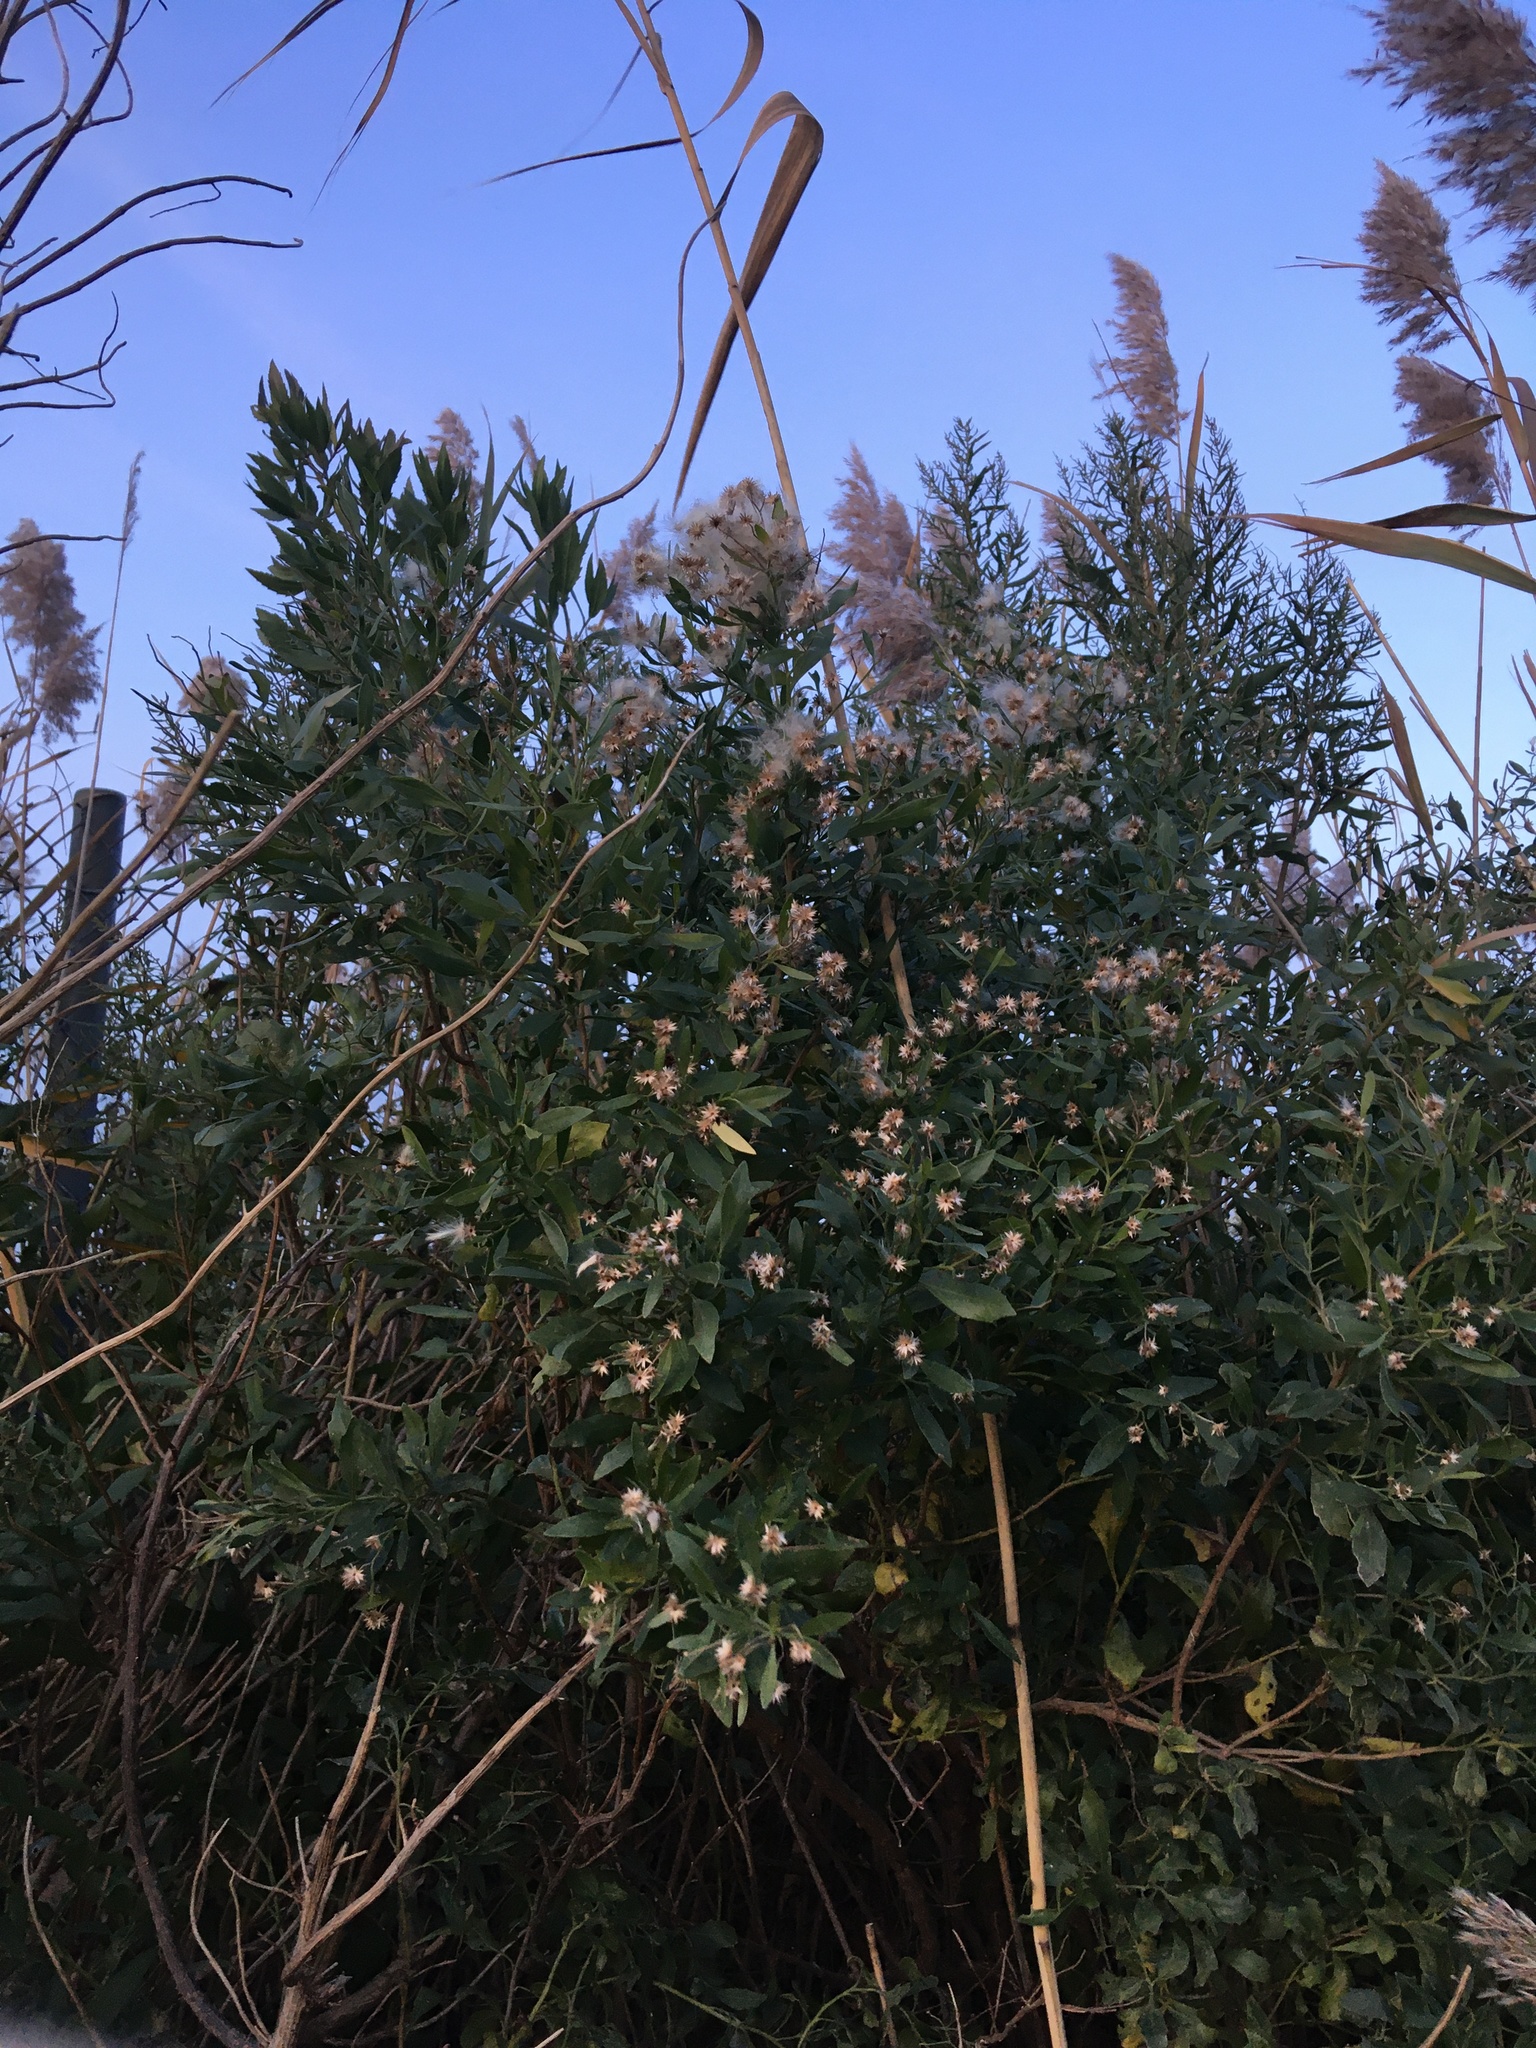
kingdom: Plantae
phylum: Tracheophyta
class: Magnoliopsida
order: Asterales
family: Asteraceae
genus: Baccharis
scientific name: Baccharis halimifolia
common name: Eastern baccharis
